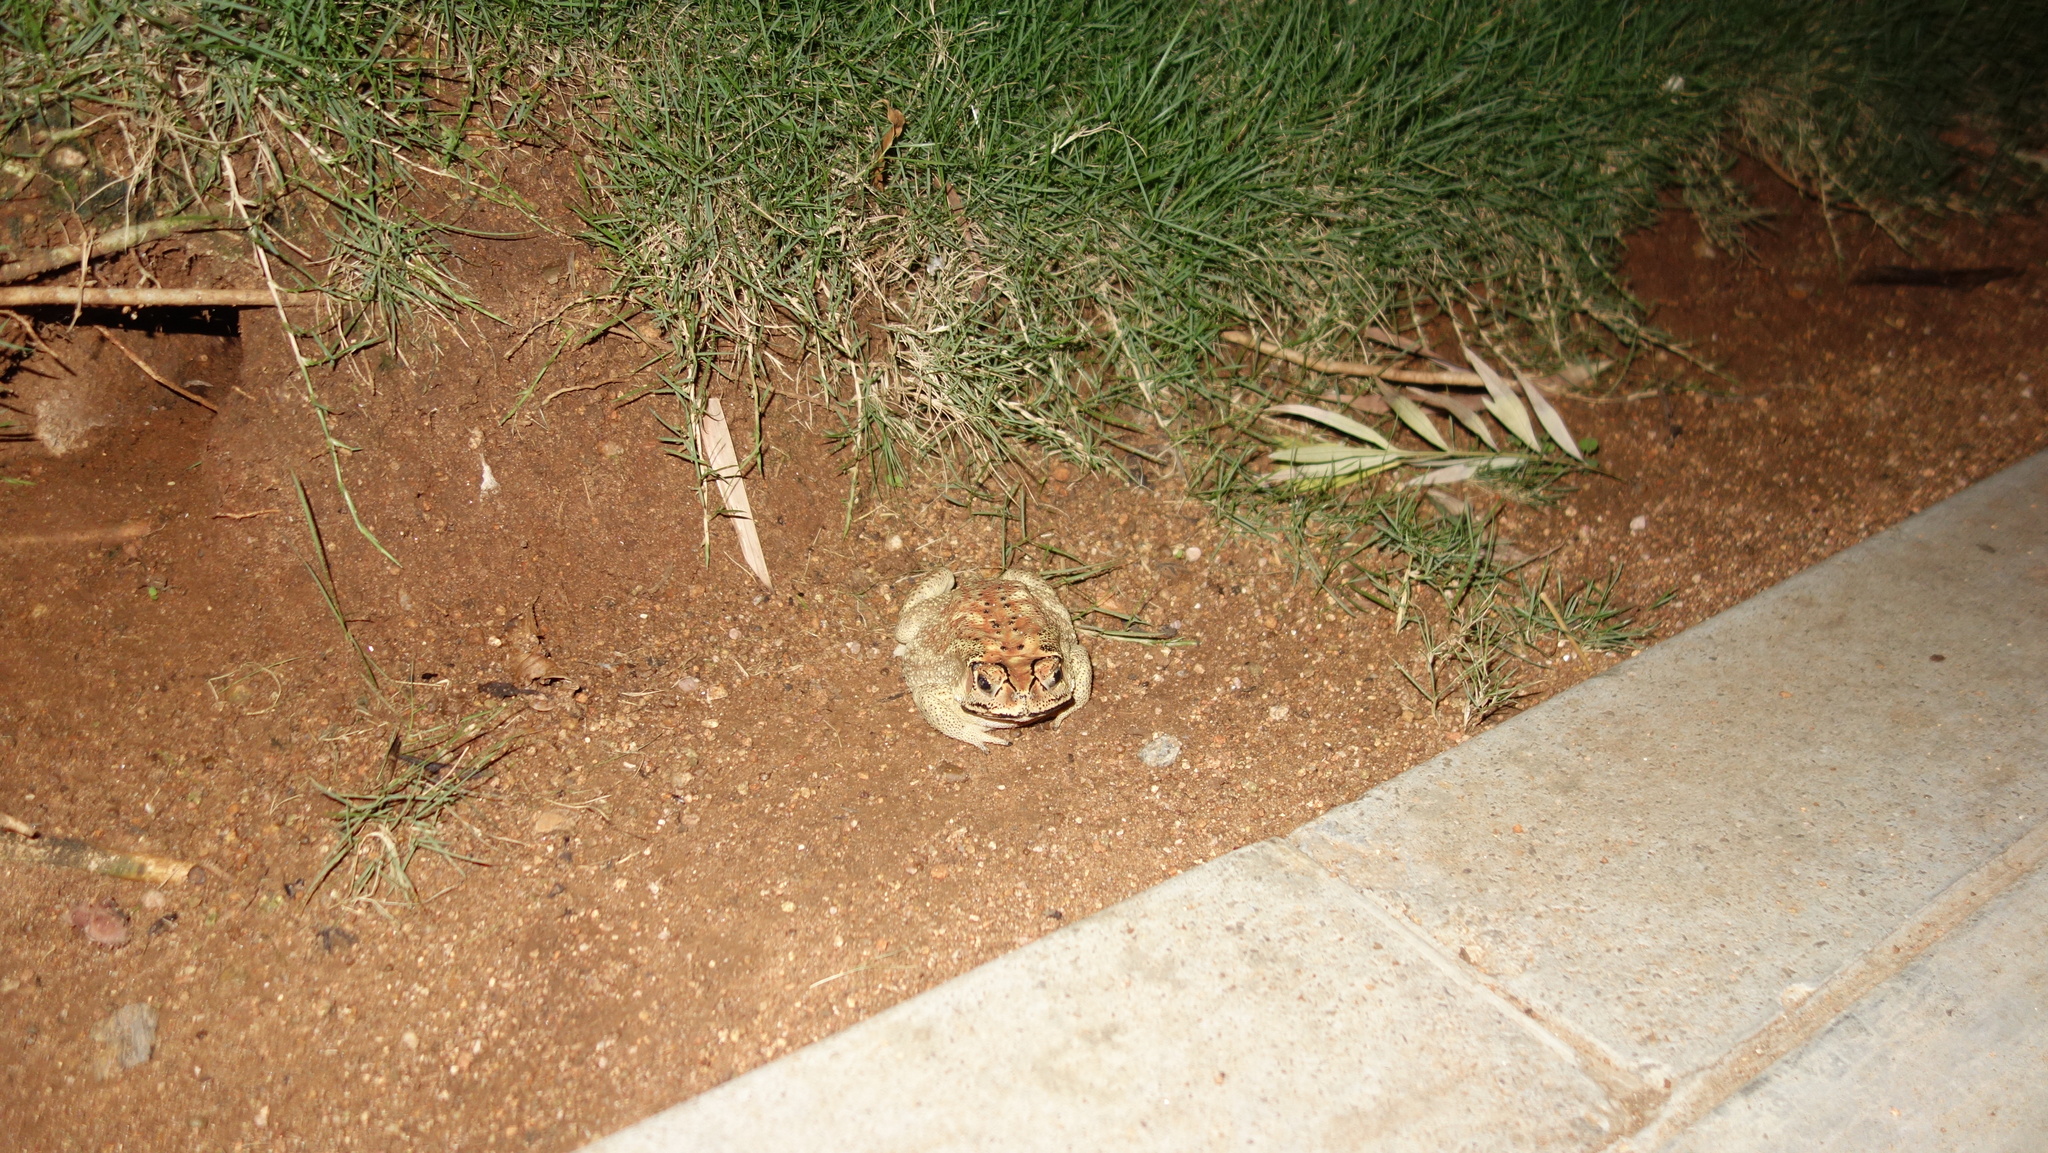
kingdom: Animalia
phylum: Chordata
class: Amphibia
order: Anura
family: Bufonidae
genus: Duttaphrynus
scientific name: Duttaphrynus melanostictus
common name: Common sunda toad
